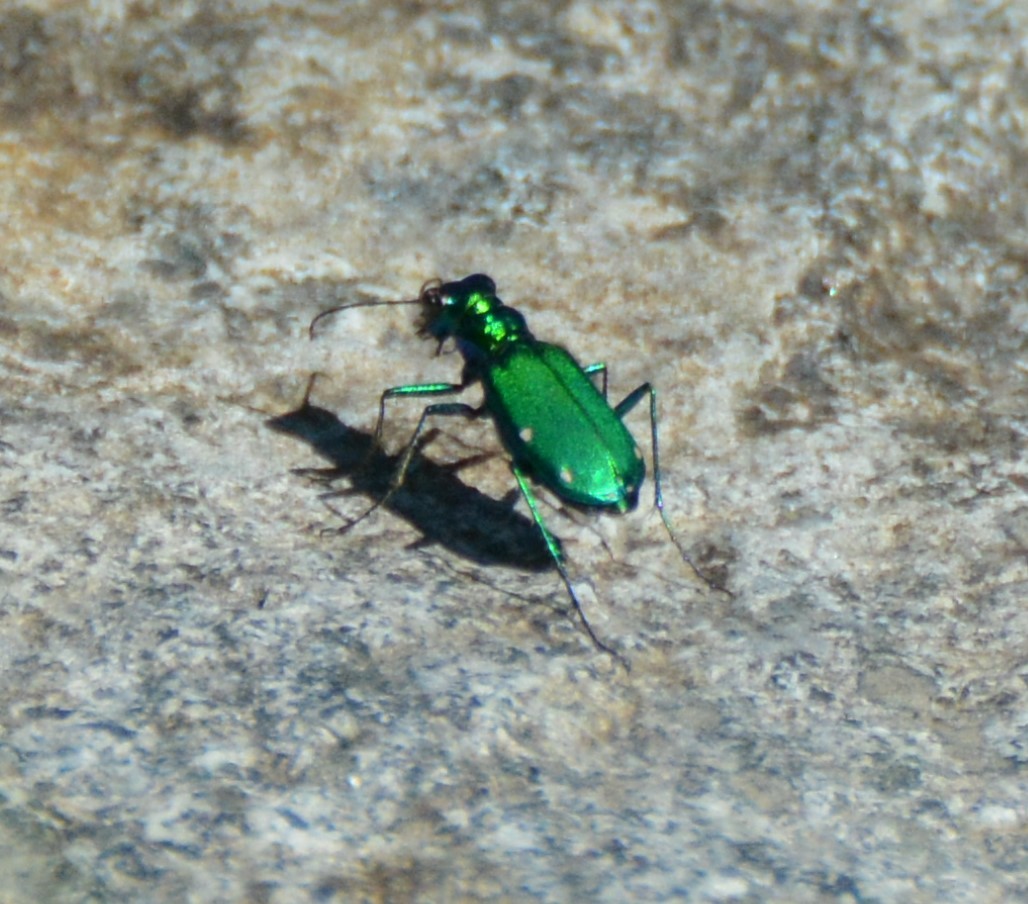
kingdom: Animalia
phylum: Arthropoda
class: Insecta
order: Coleoptera
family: Carabidae
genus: Cicindela
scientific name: Cicindela sexguttata
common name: Six-spotted tiger beetle
